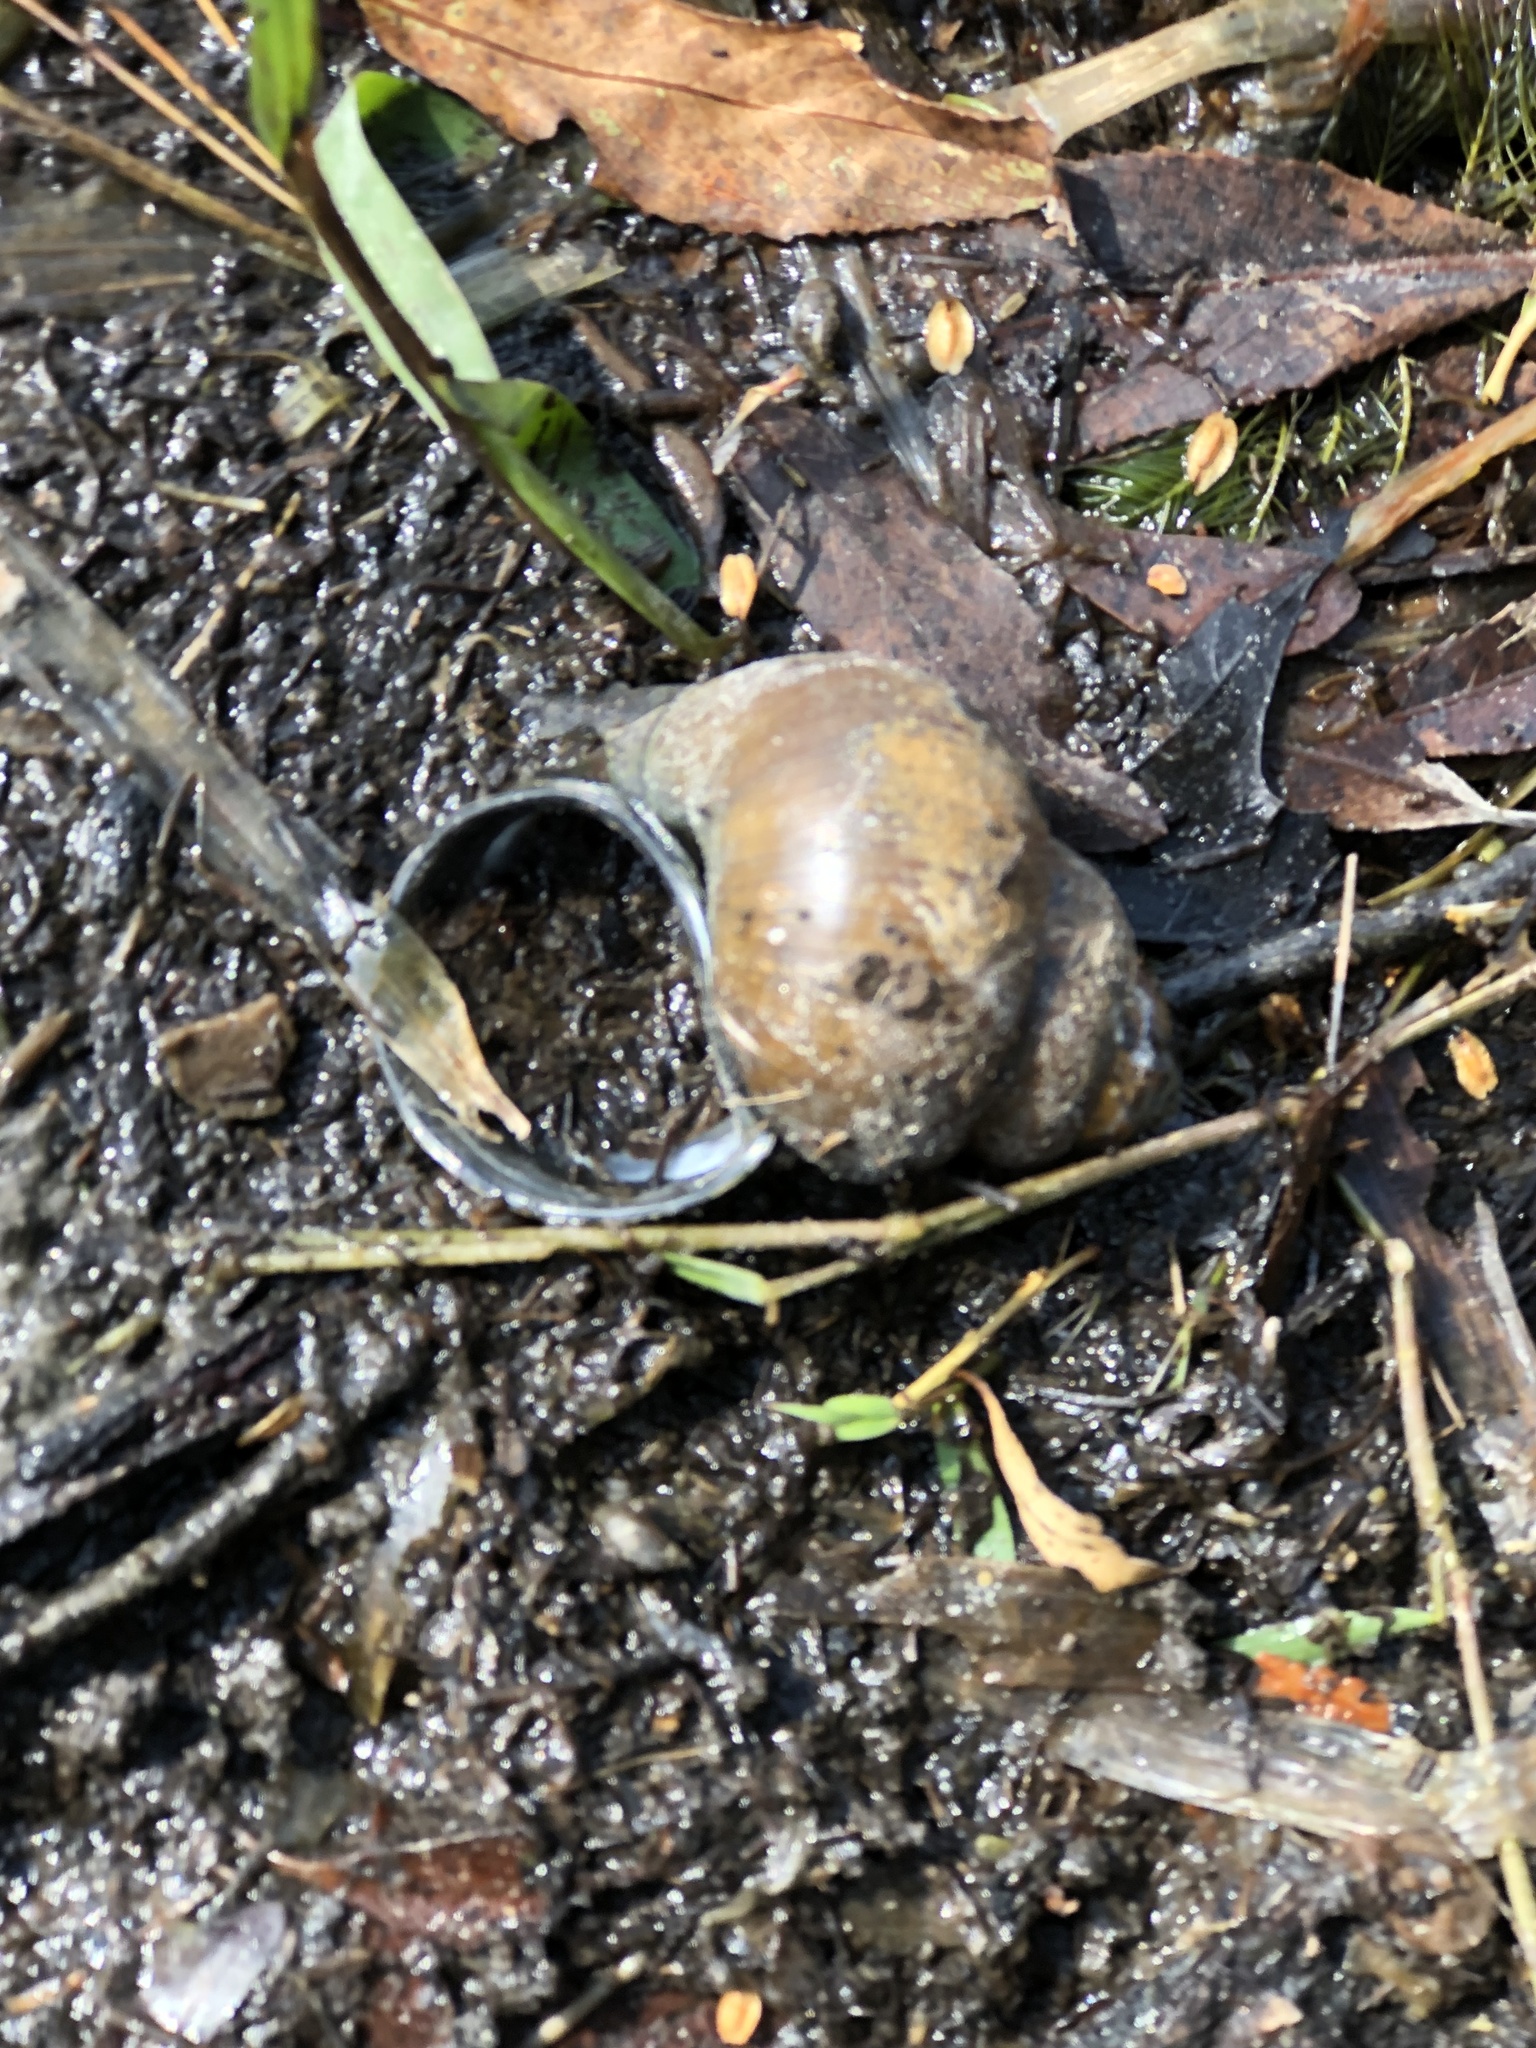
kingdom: Animalia
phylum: Mollusca
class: Gastropoda
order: Architaenioglossa
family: Viviparidae
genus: Cipangopaludina
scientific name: Cipangopaludina chinensis
